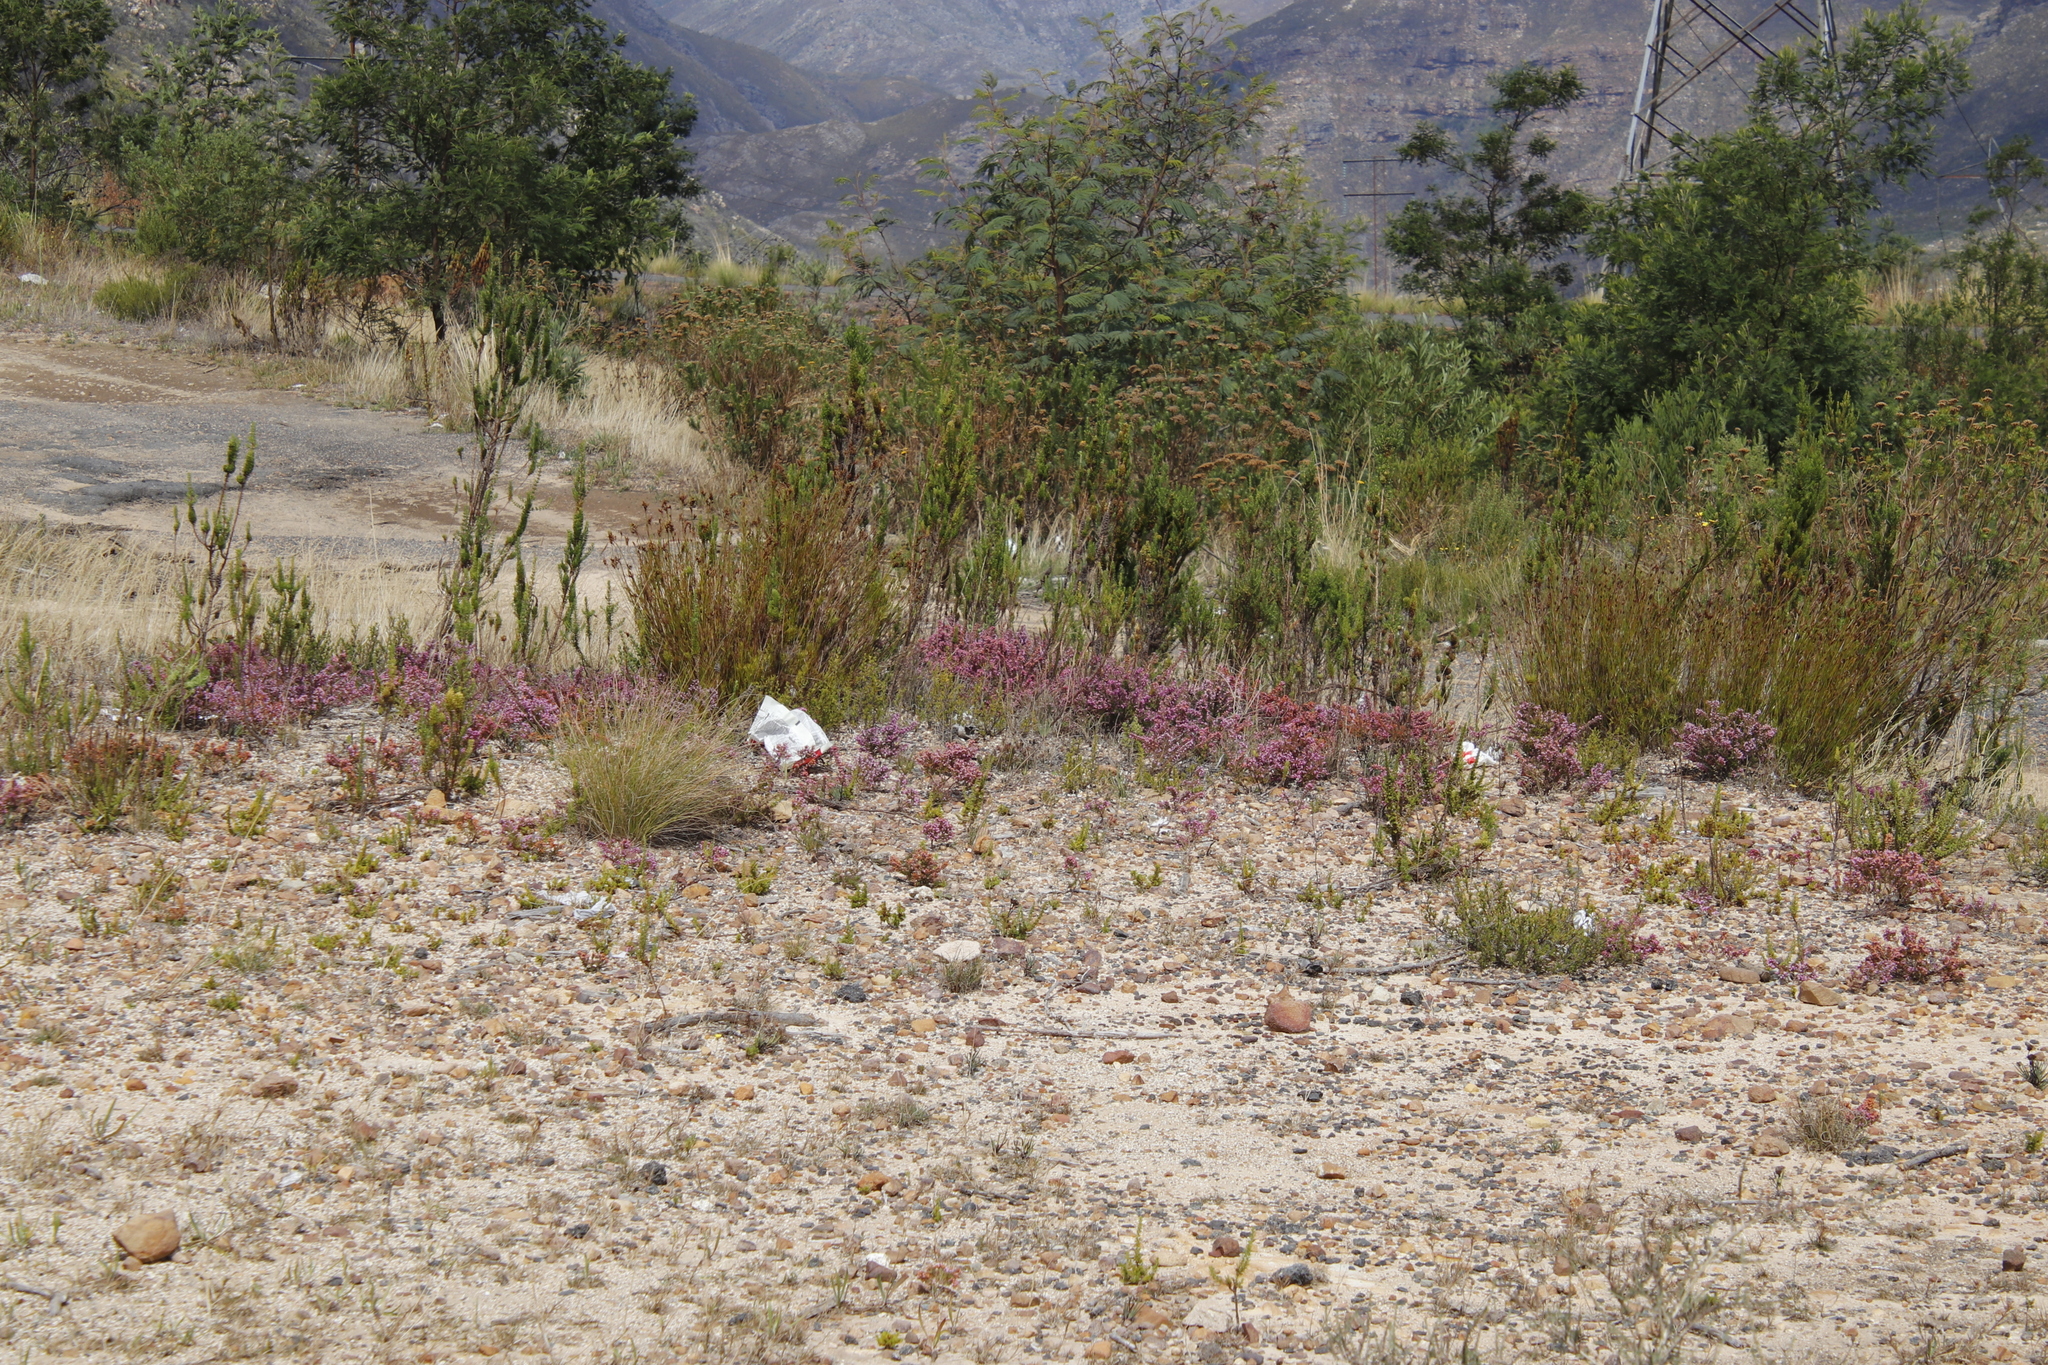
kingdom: Plantae
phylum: Tracheophyta
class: Magnoliopsida
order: Ericales
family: Ericaceae
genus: Erica
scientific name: Erica nudiflora
